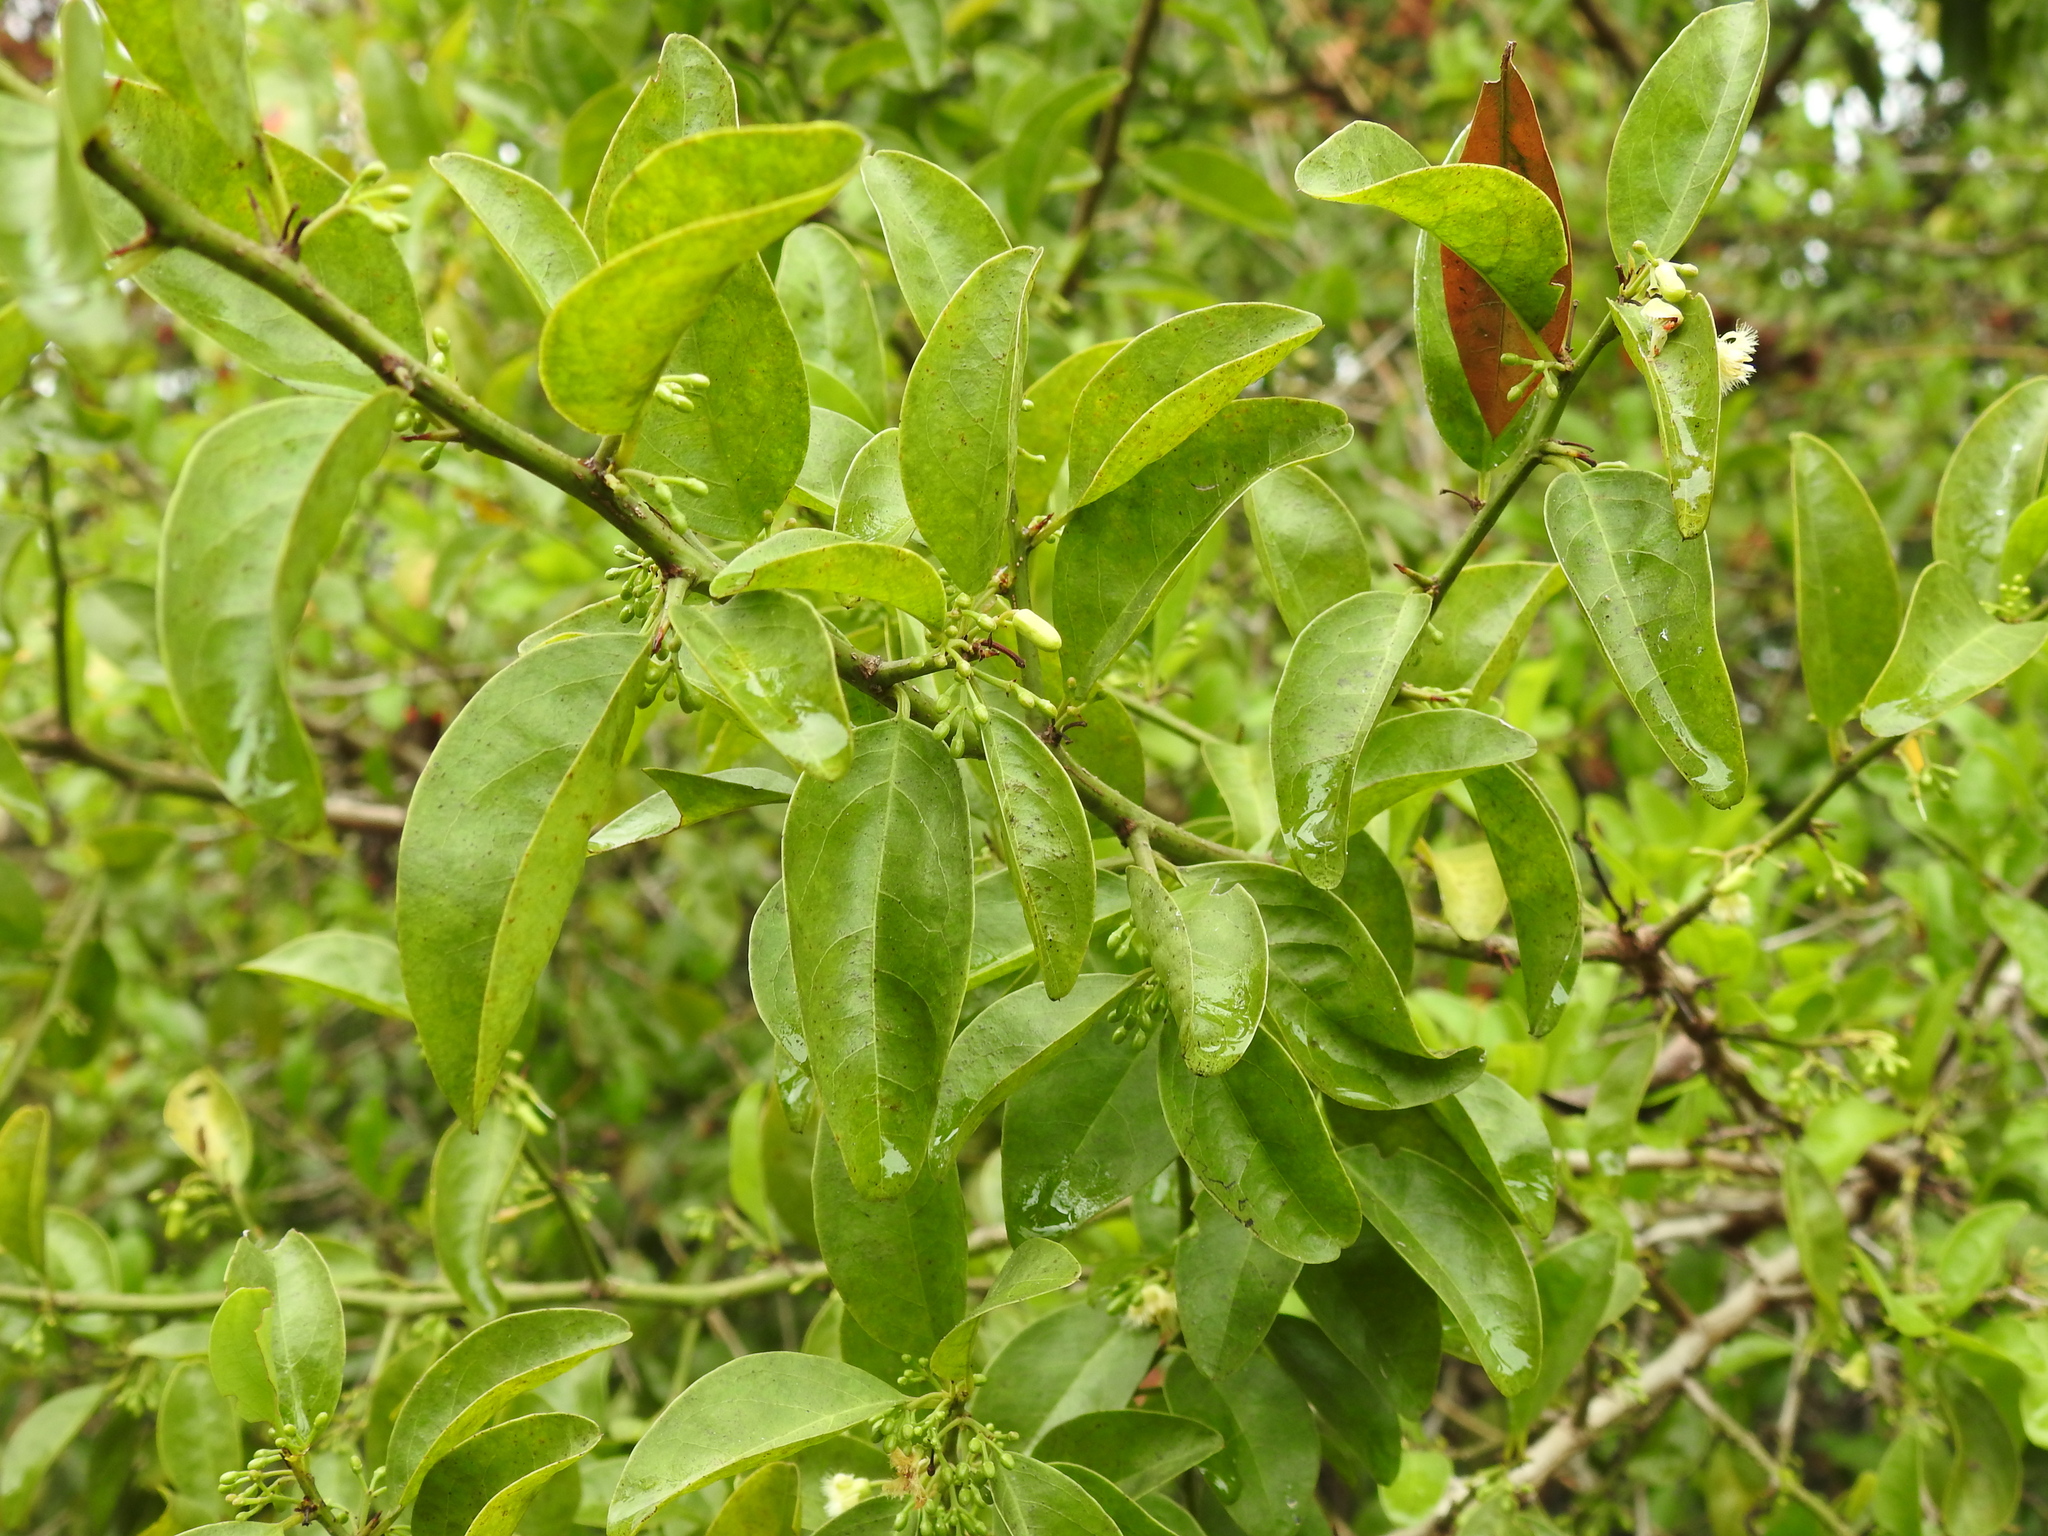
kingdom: Plantae
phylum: Tracheophyta
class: Magnoliopsida
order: Santalales
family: Ximeniaceae
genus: Ximenia
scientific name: Ximenia americana
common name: Tallowwood
